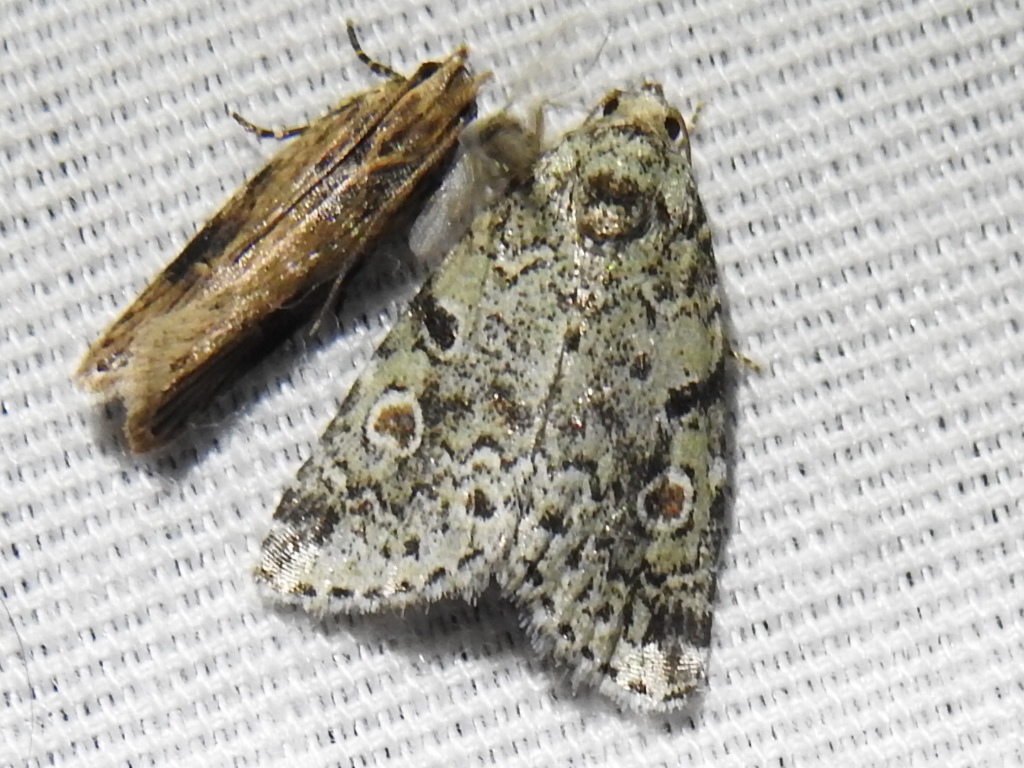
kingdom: Animalia
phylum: Arthropoda
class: Insecta
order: Lepidoptera
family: Noctuidae
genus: Maliattha
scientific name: Maliattha concinnimacula
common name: Red-spotted glyph
